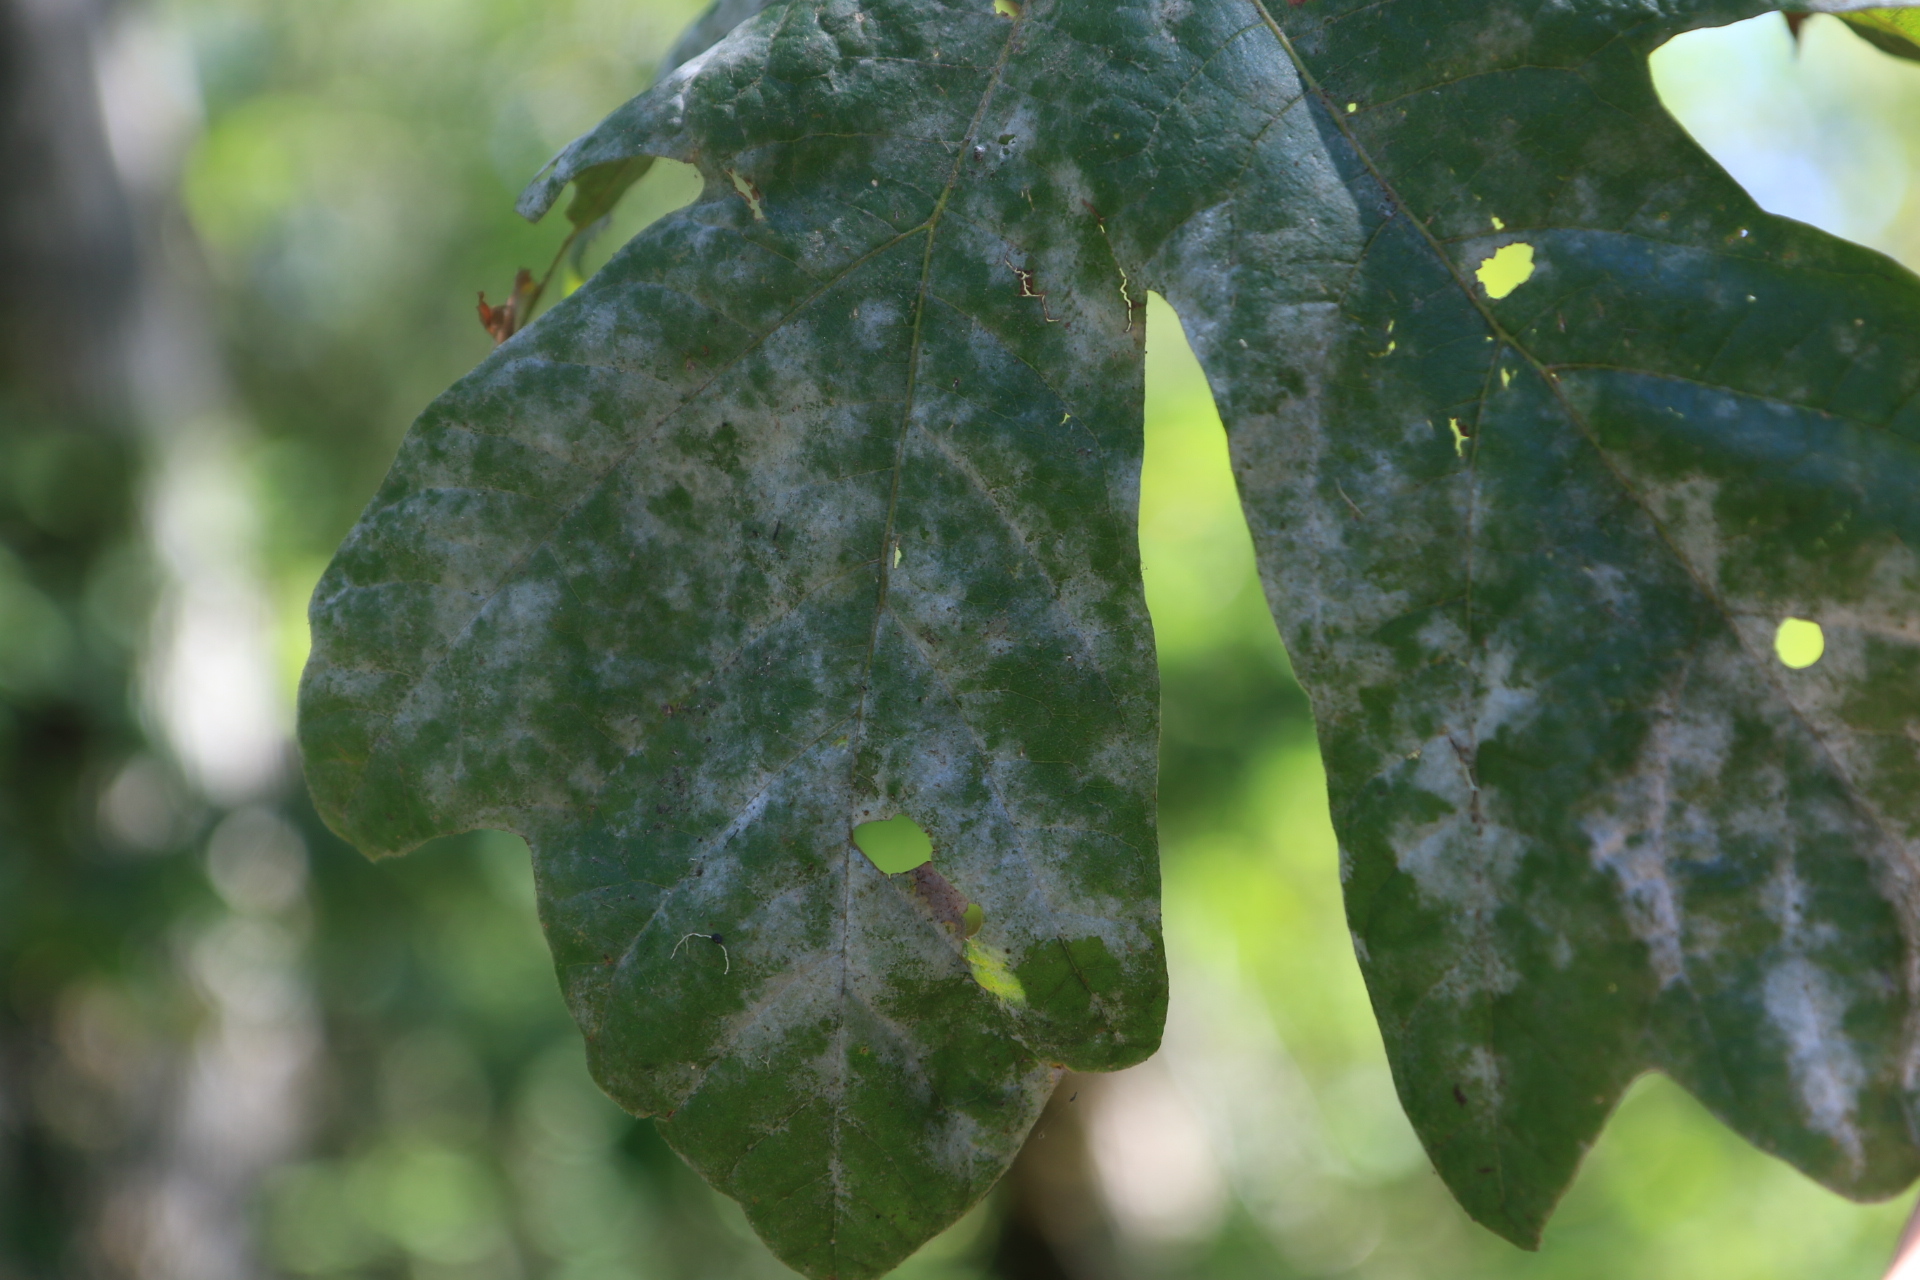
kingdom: Fungi
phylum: Ascomycota
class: Leotiomycetes
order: Helotiales
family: Erysiphaceae
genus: Sawadaea
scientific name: Sawadaea bicornis
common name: Maple mildew
